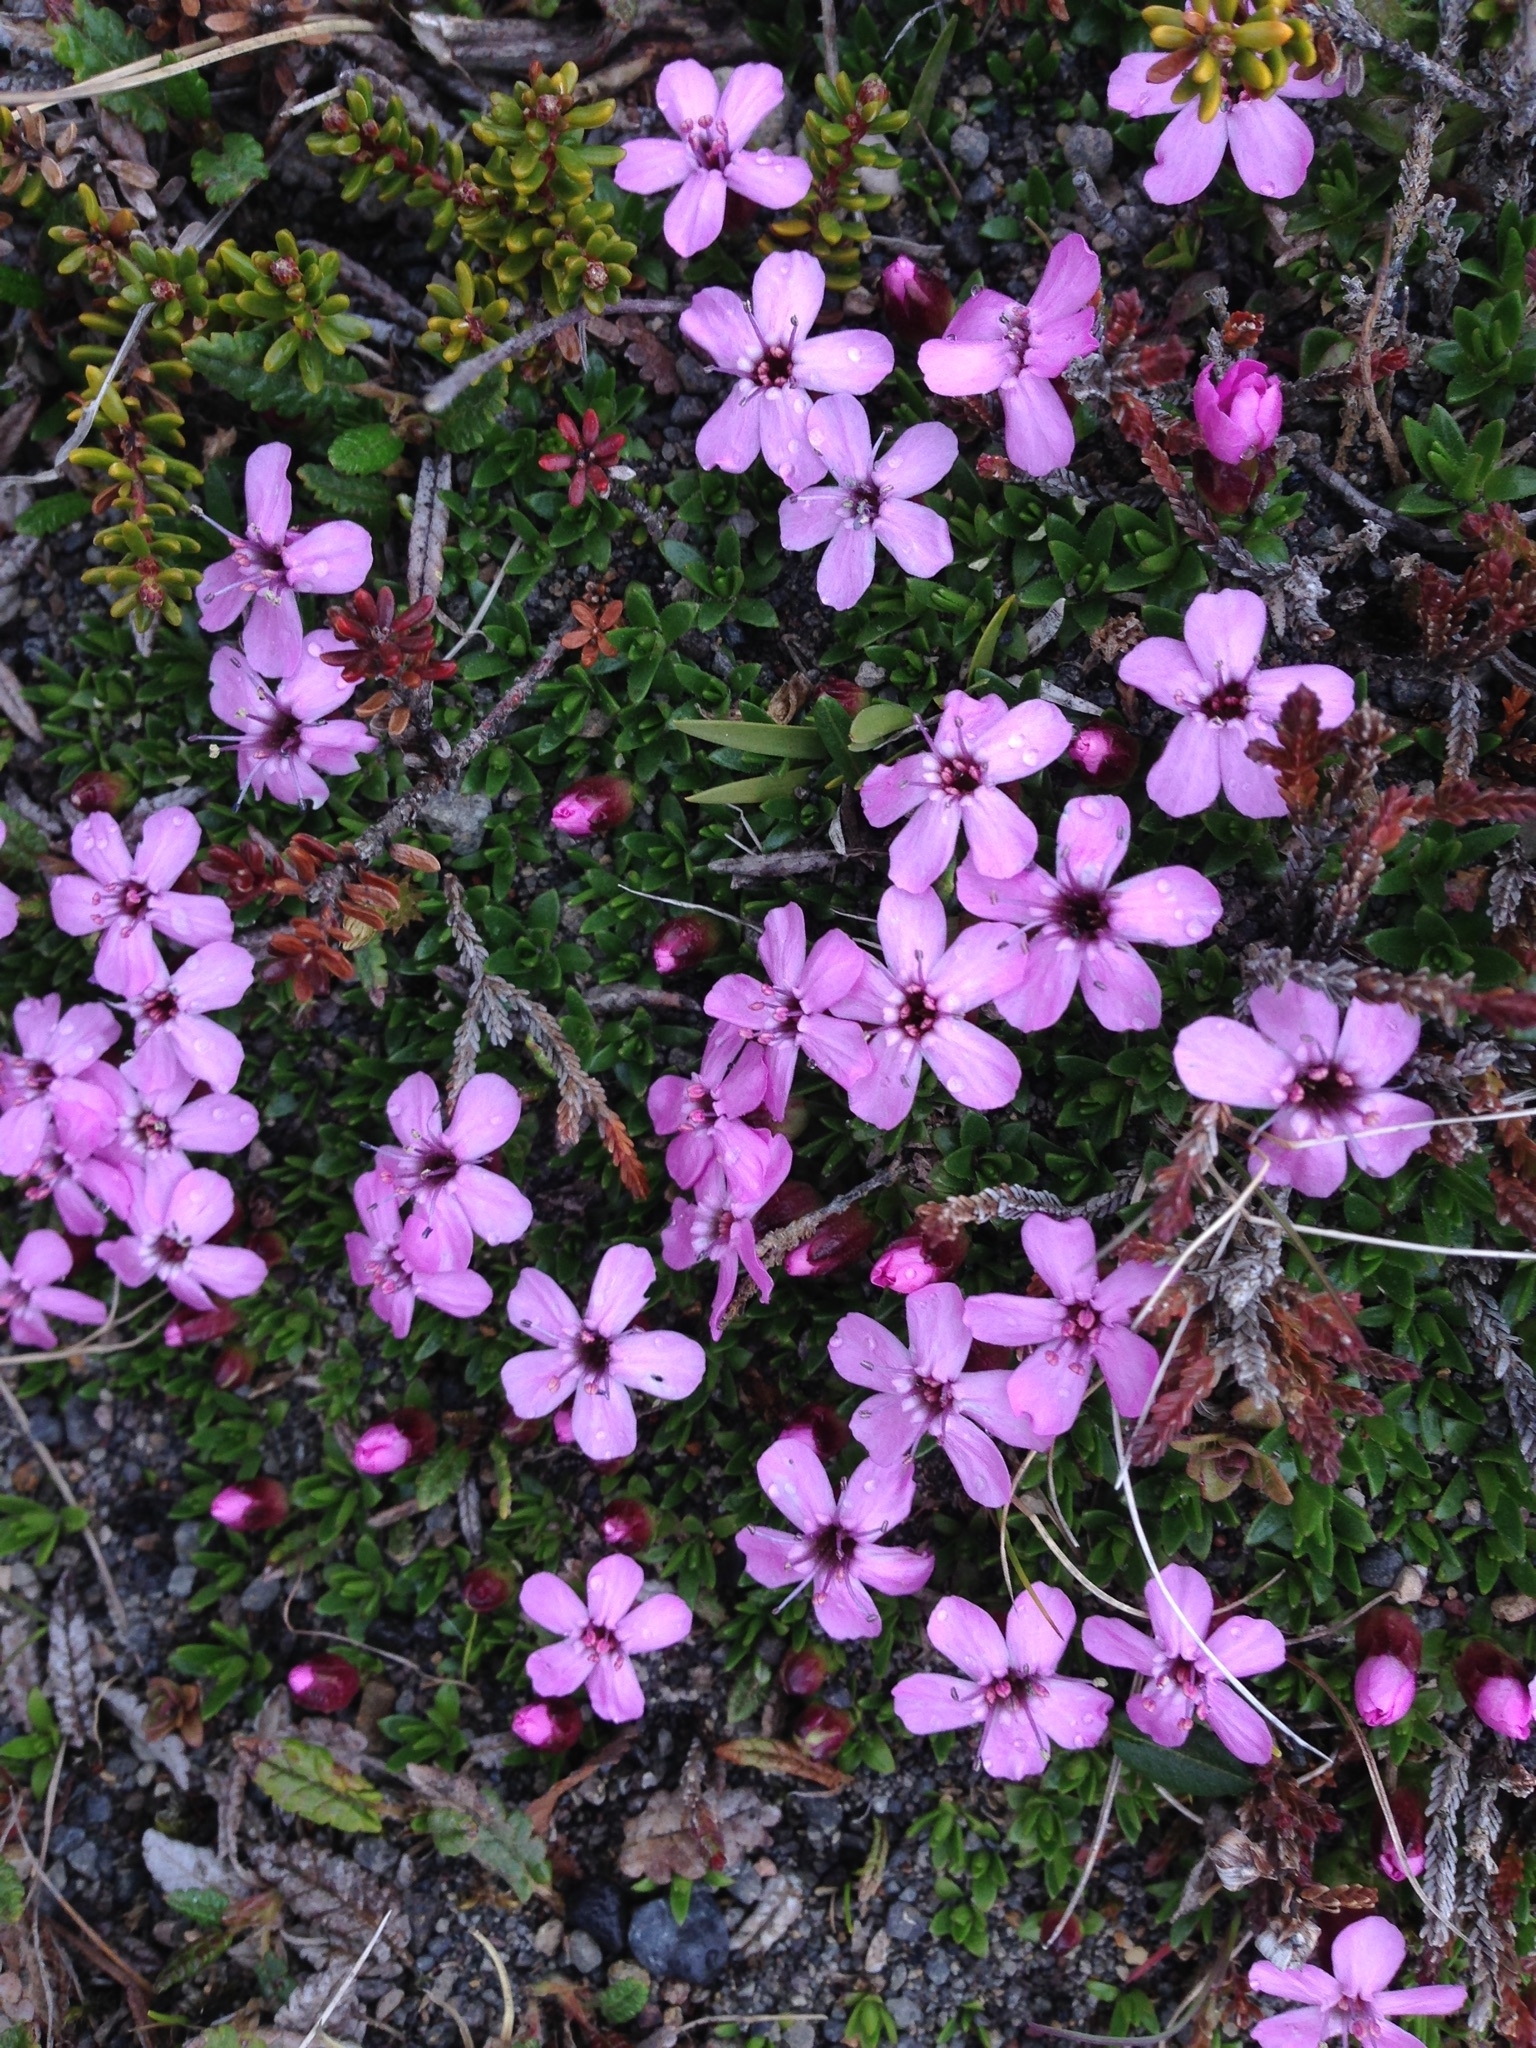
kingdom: Plantae
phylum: Tracheophyta
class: Magnoliopsida
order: Caryophyllales
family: Caryophyllaceae
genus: Silene
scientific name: Silene acaulis
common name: Moss campion
